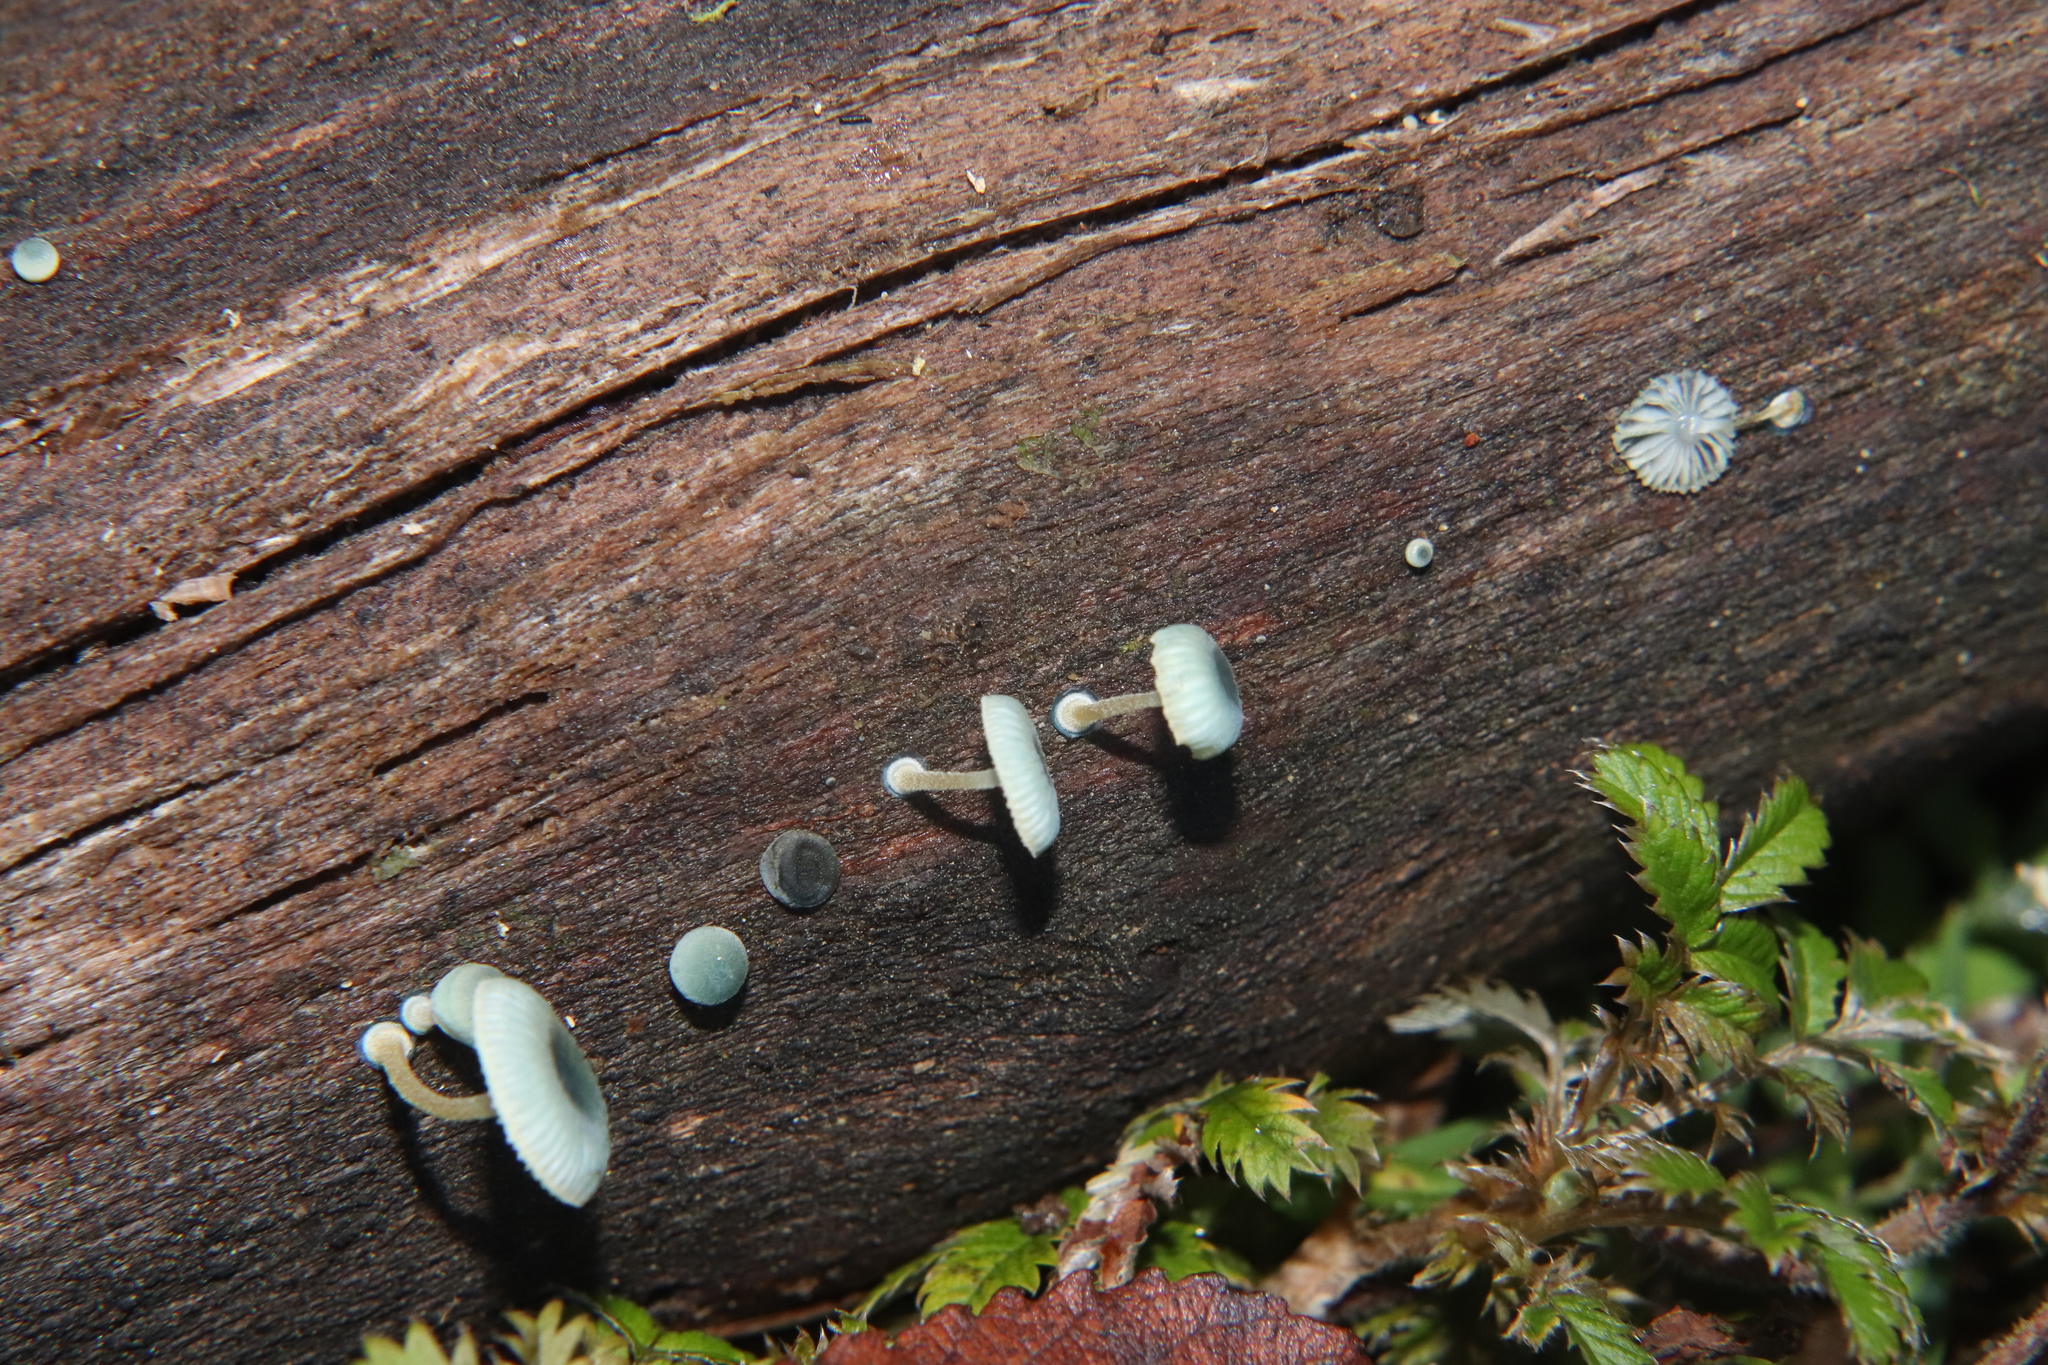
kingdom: Fungi
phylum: Basidiomycota
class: Agaricomycetes
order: Agaricales
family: Mycenaceae
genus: Mycena
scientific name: Mycena interrupta
